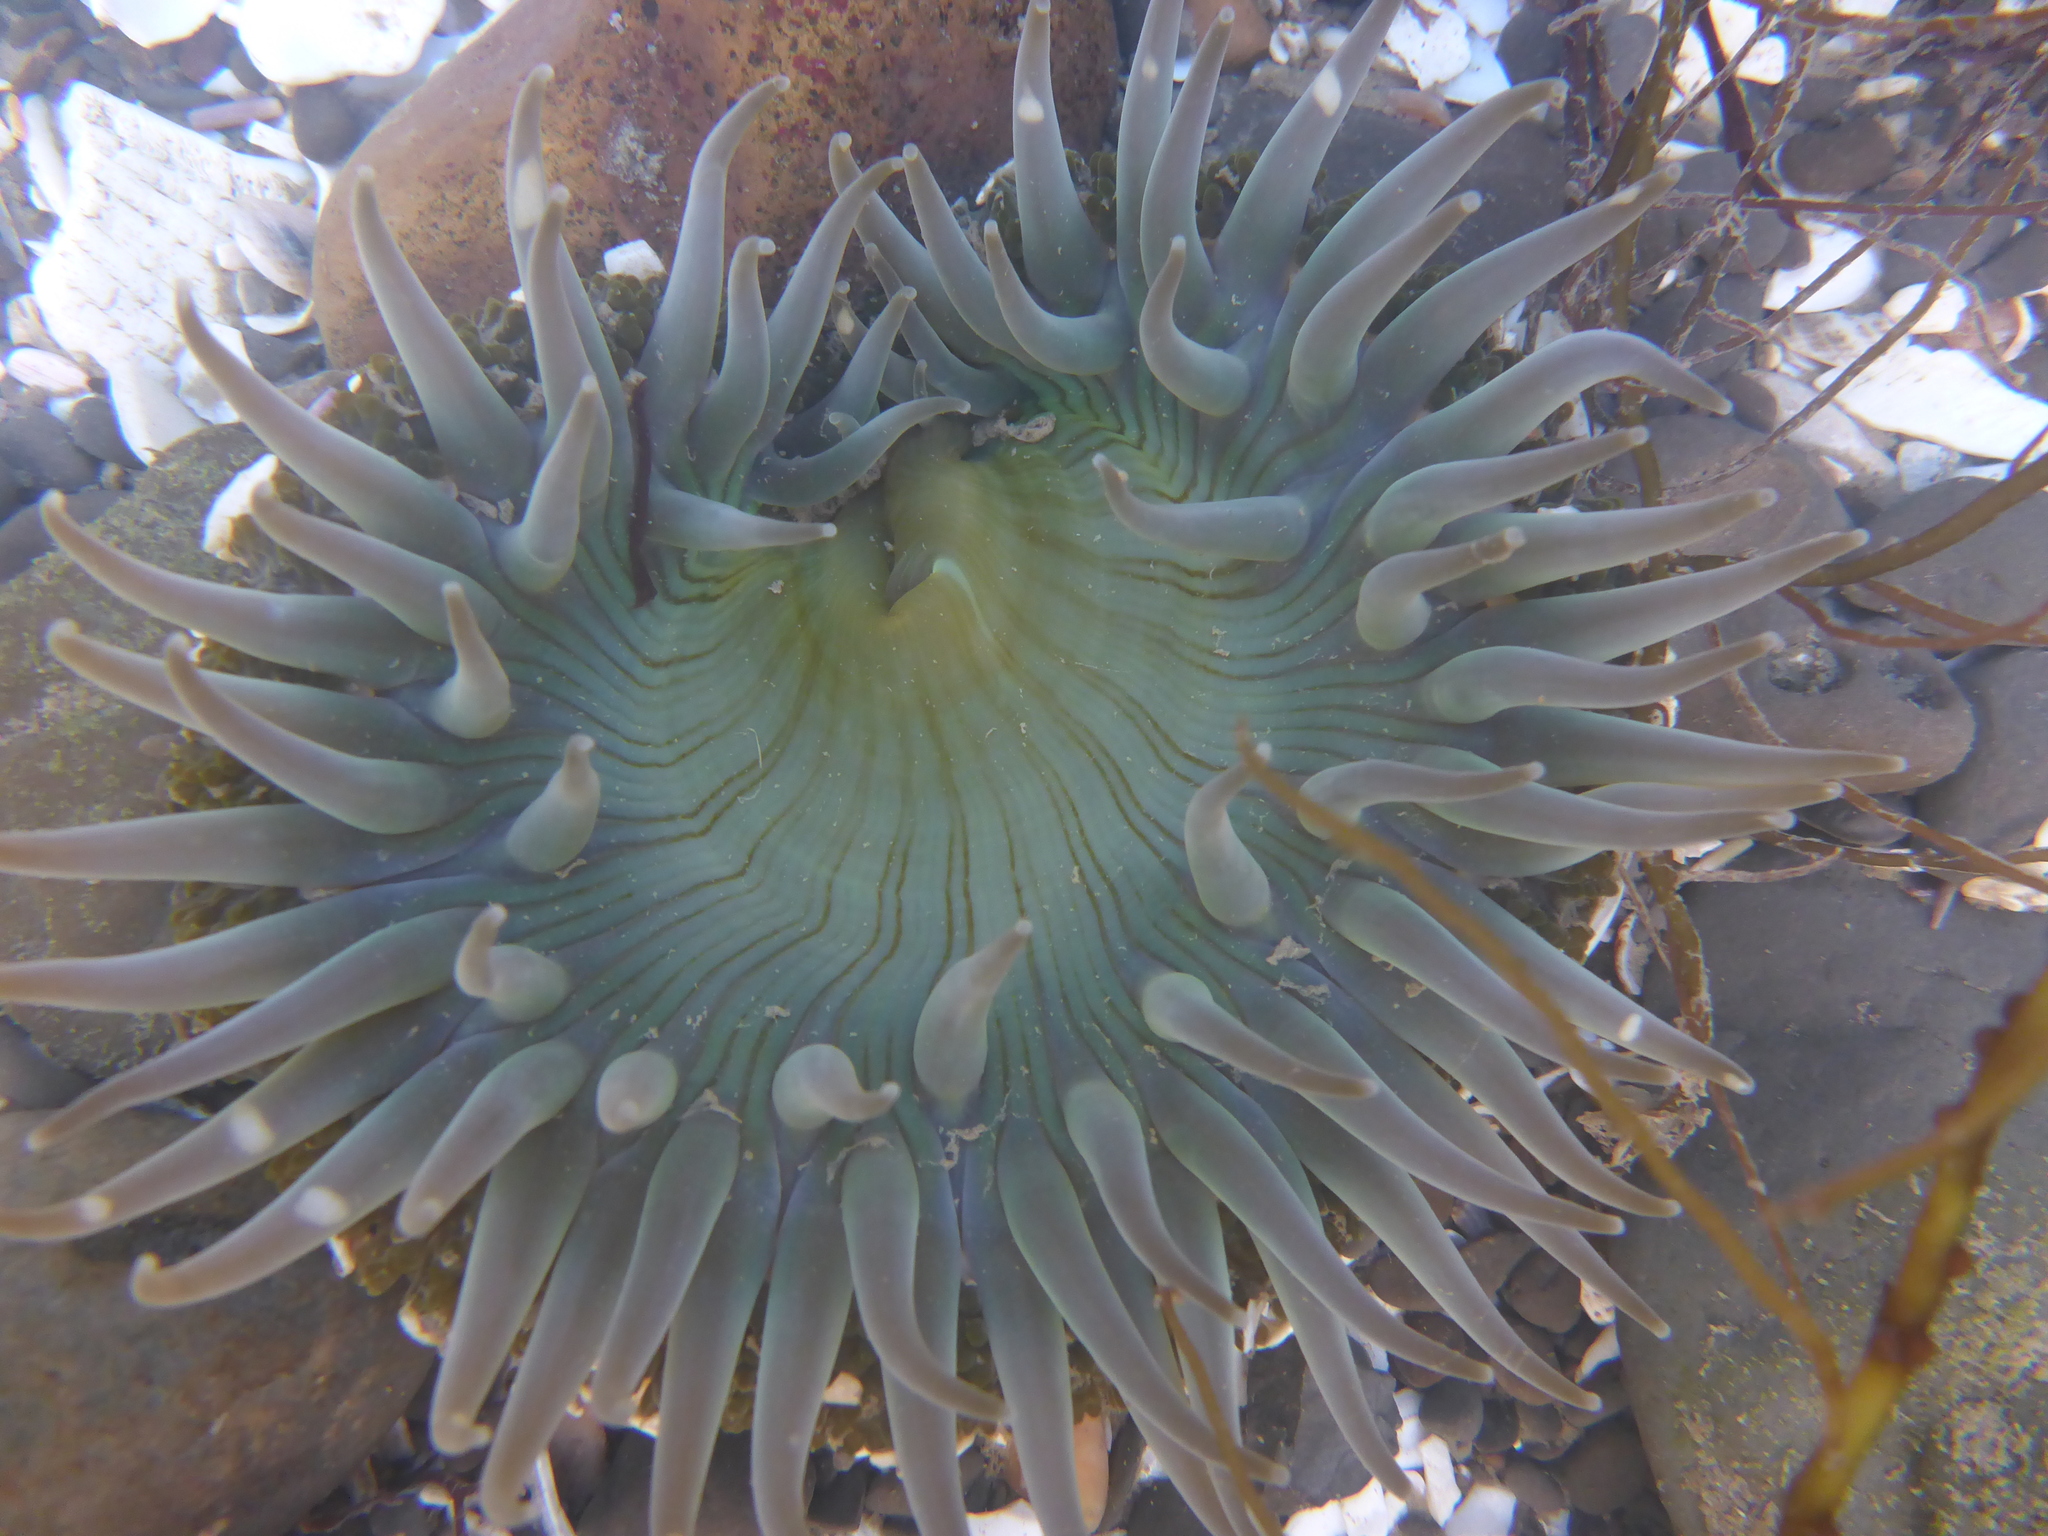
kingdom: Animalia
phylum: Cnidaria
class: Anthozoa
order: Actiniaria
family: Actiniidae
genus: Anthopleura
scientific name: Anthopleura sola
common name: Sun anemone
